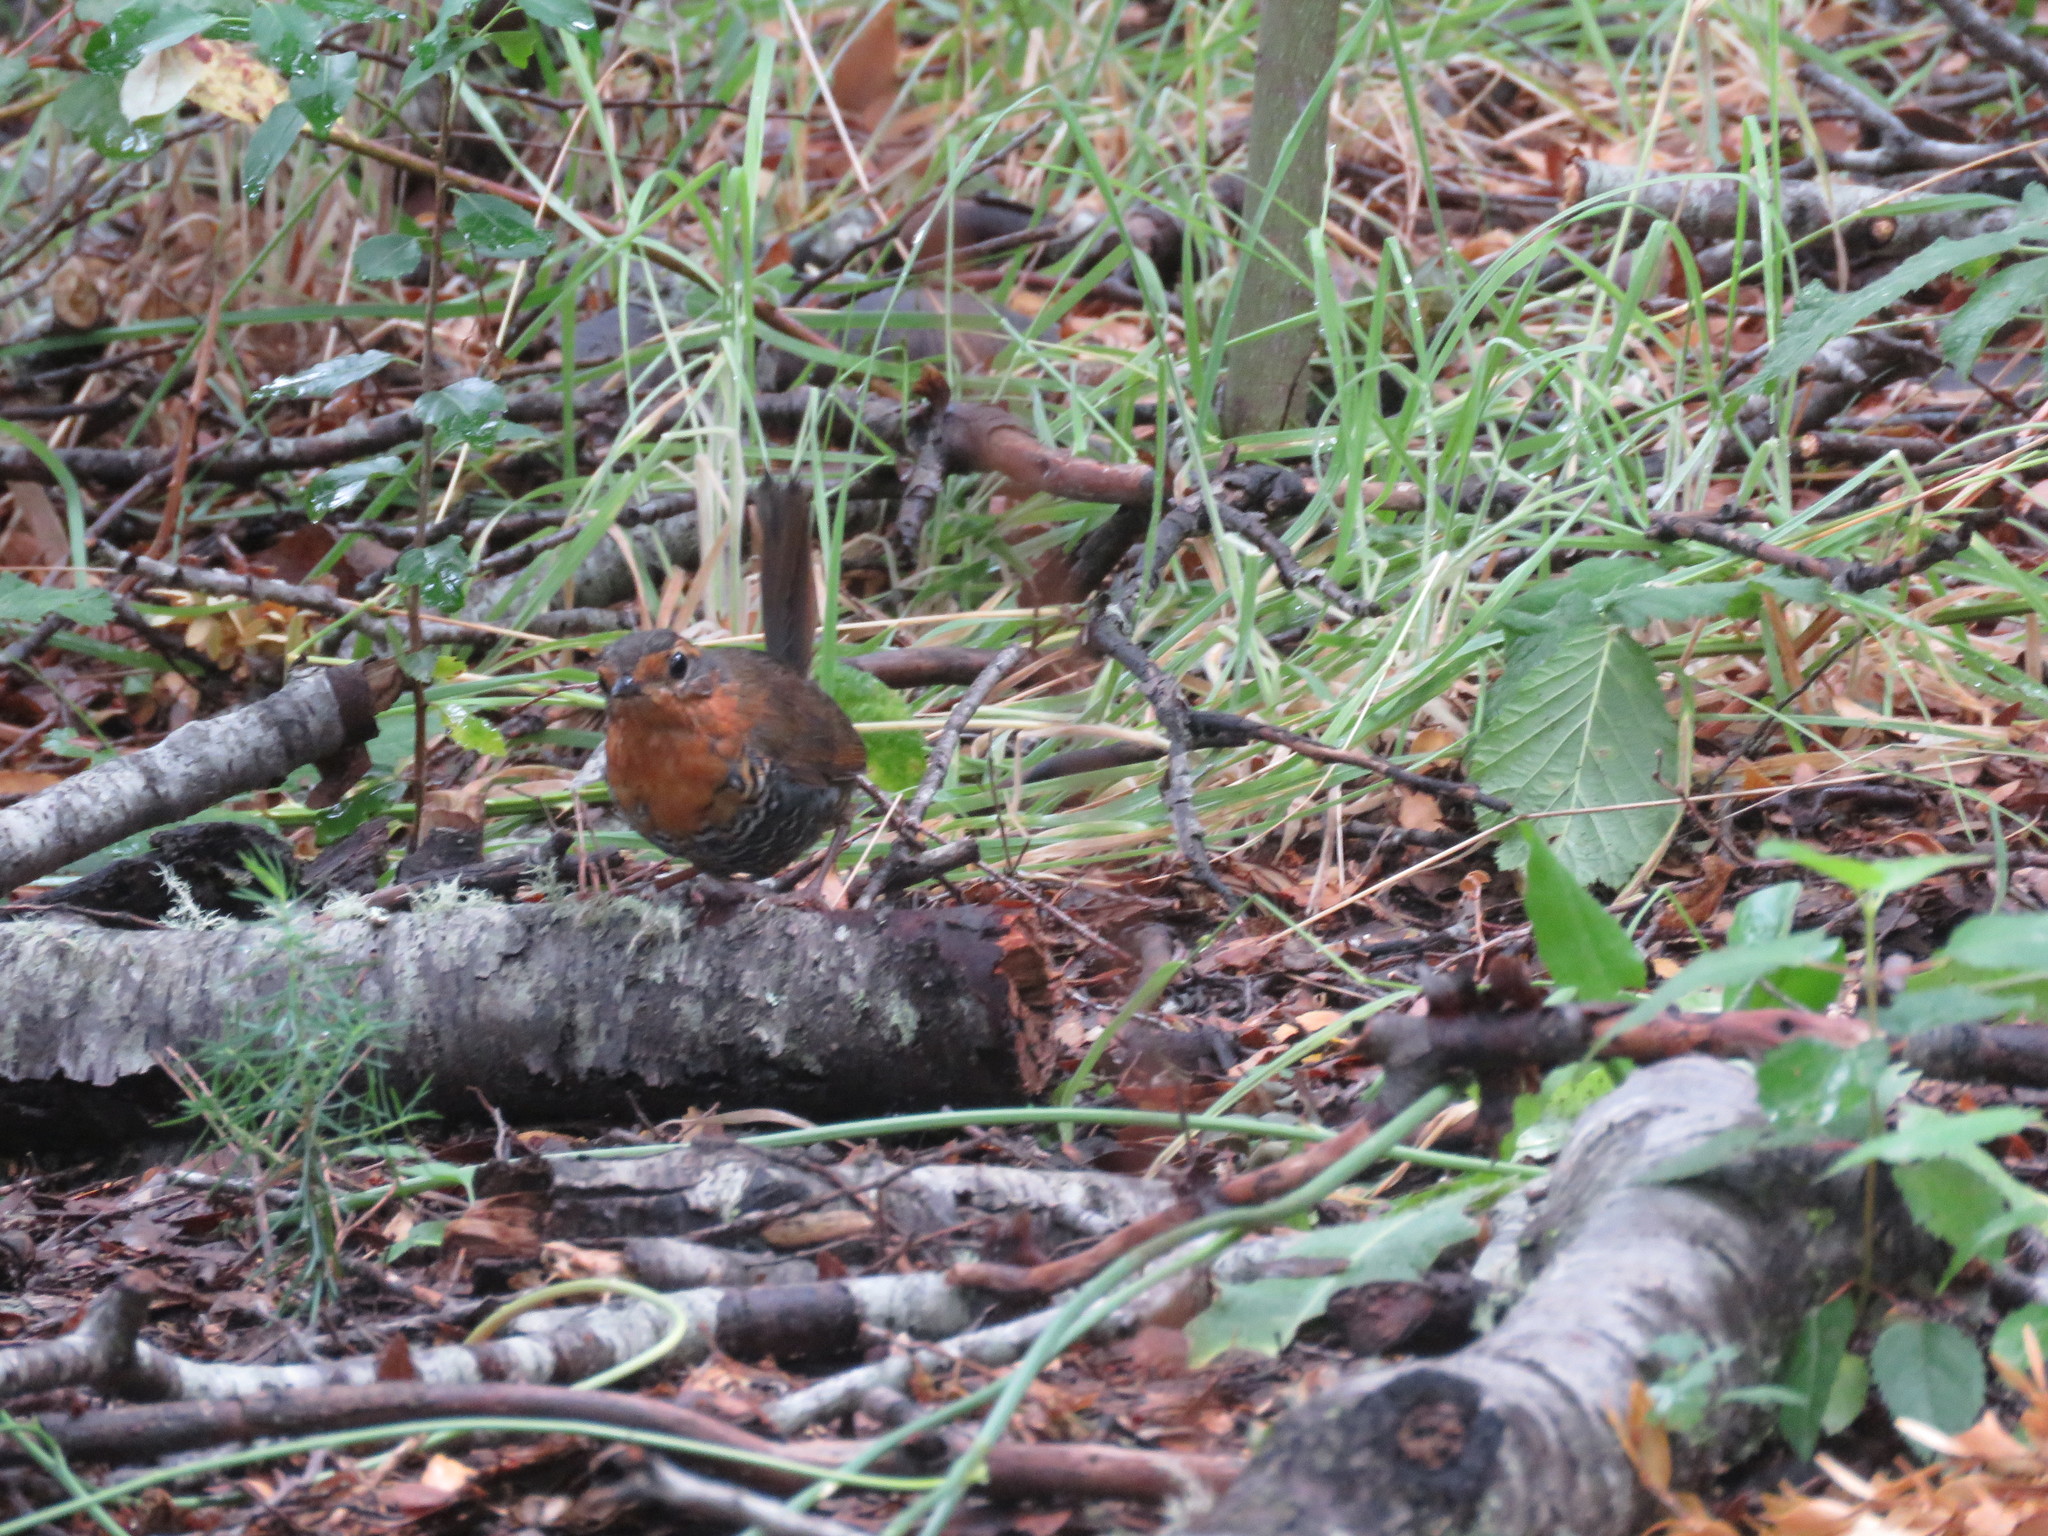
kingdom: Animalia
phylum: Chordata
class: Aves
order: Passeriformes
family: Rhinocryptidae
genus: Scelorchilus
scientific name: Scelorchilus rubecula
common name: Chucao tapaculo
